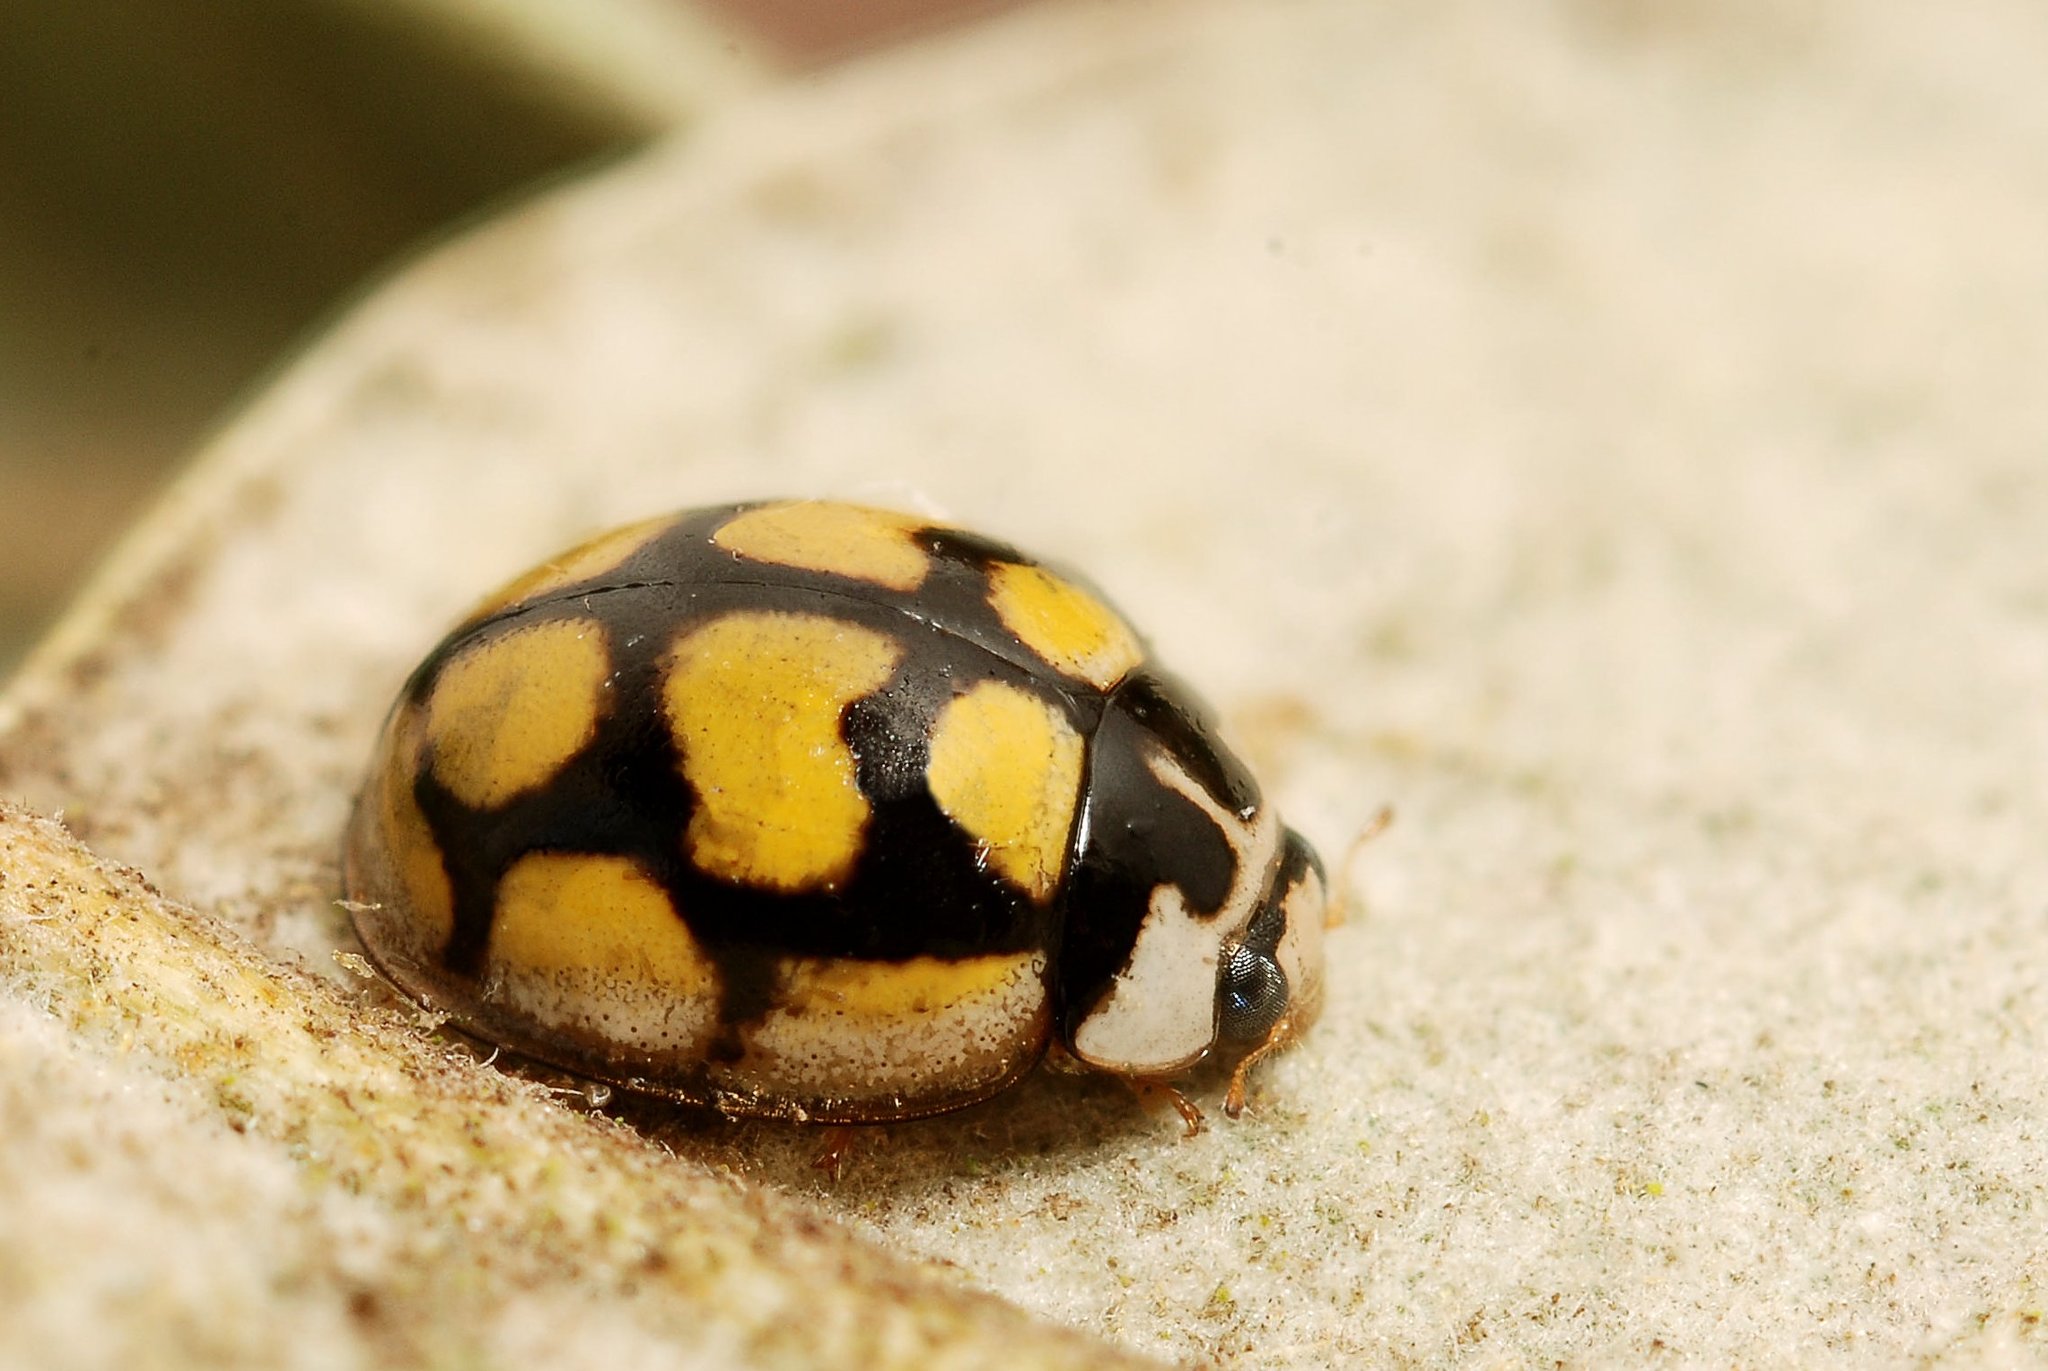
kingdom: Animalia
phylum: Arthropoda
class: Insecta
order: Coleoptera
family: Coccinellidae
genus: Oenopia
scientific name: Oenopia lyncea
